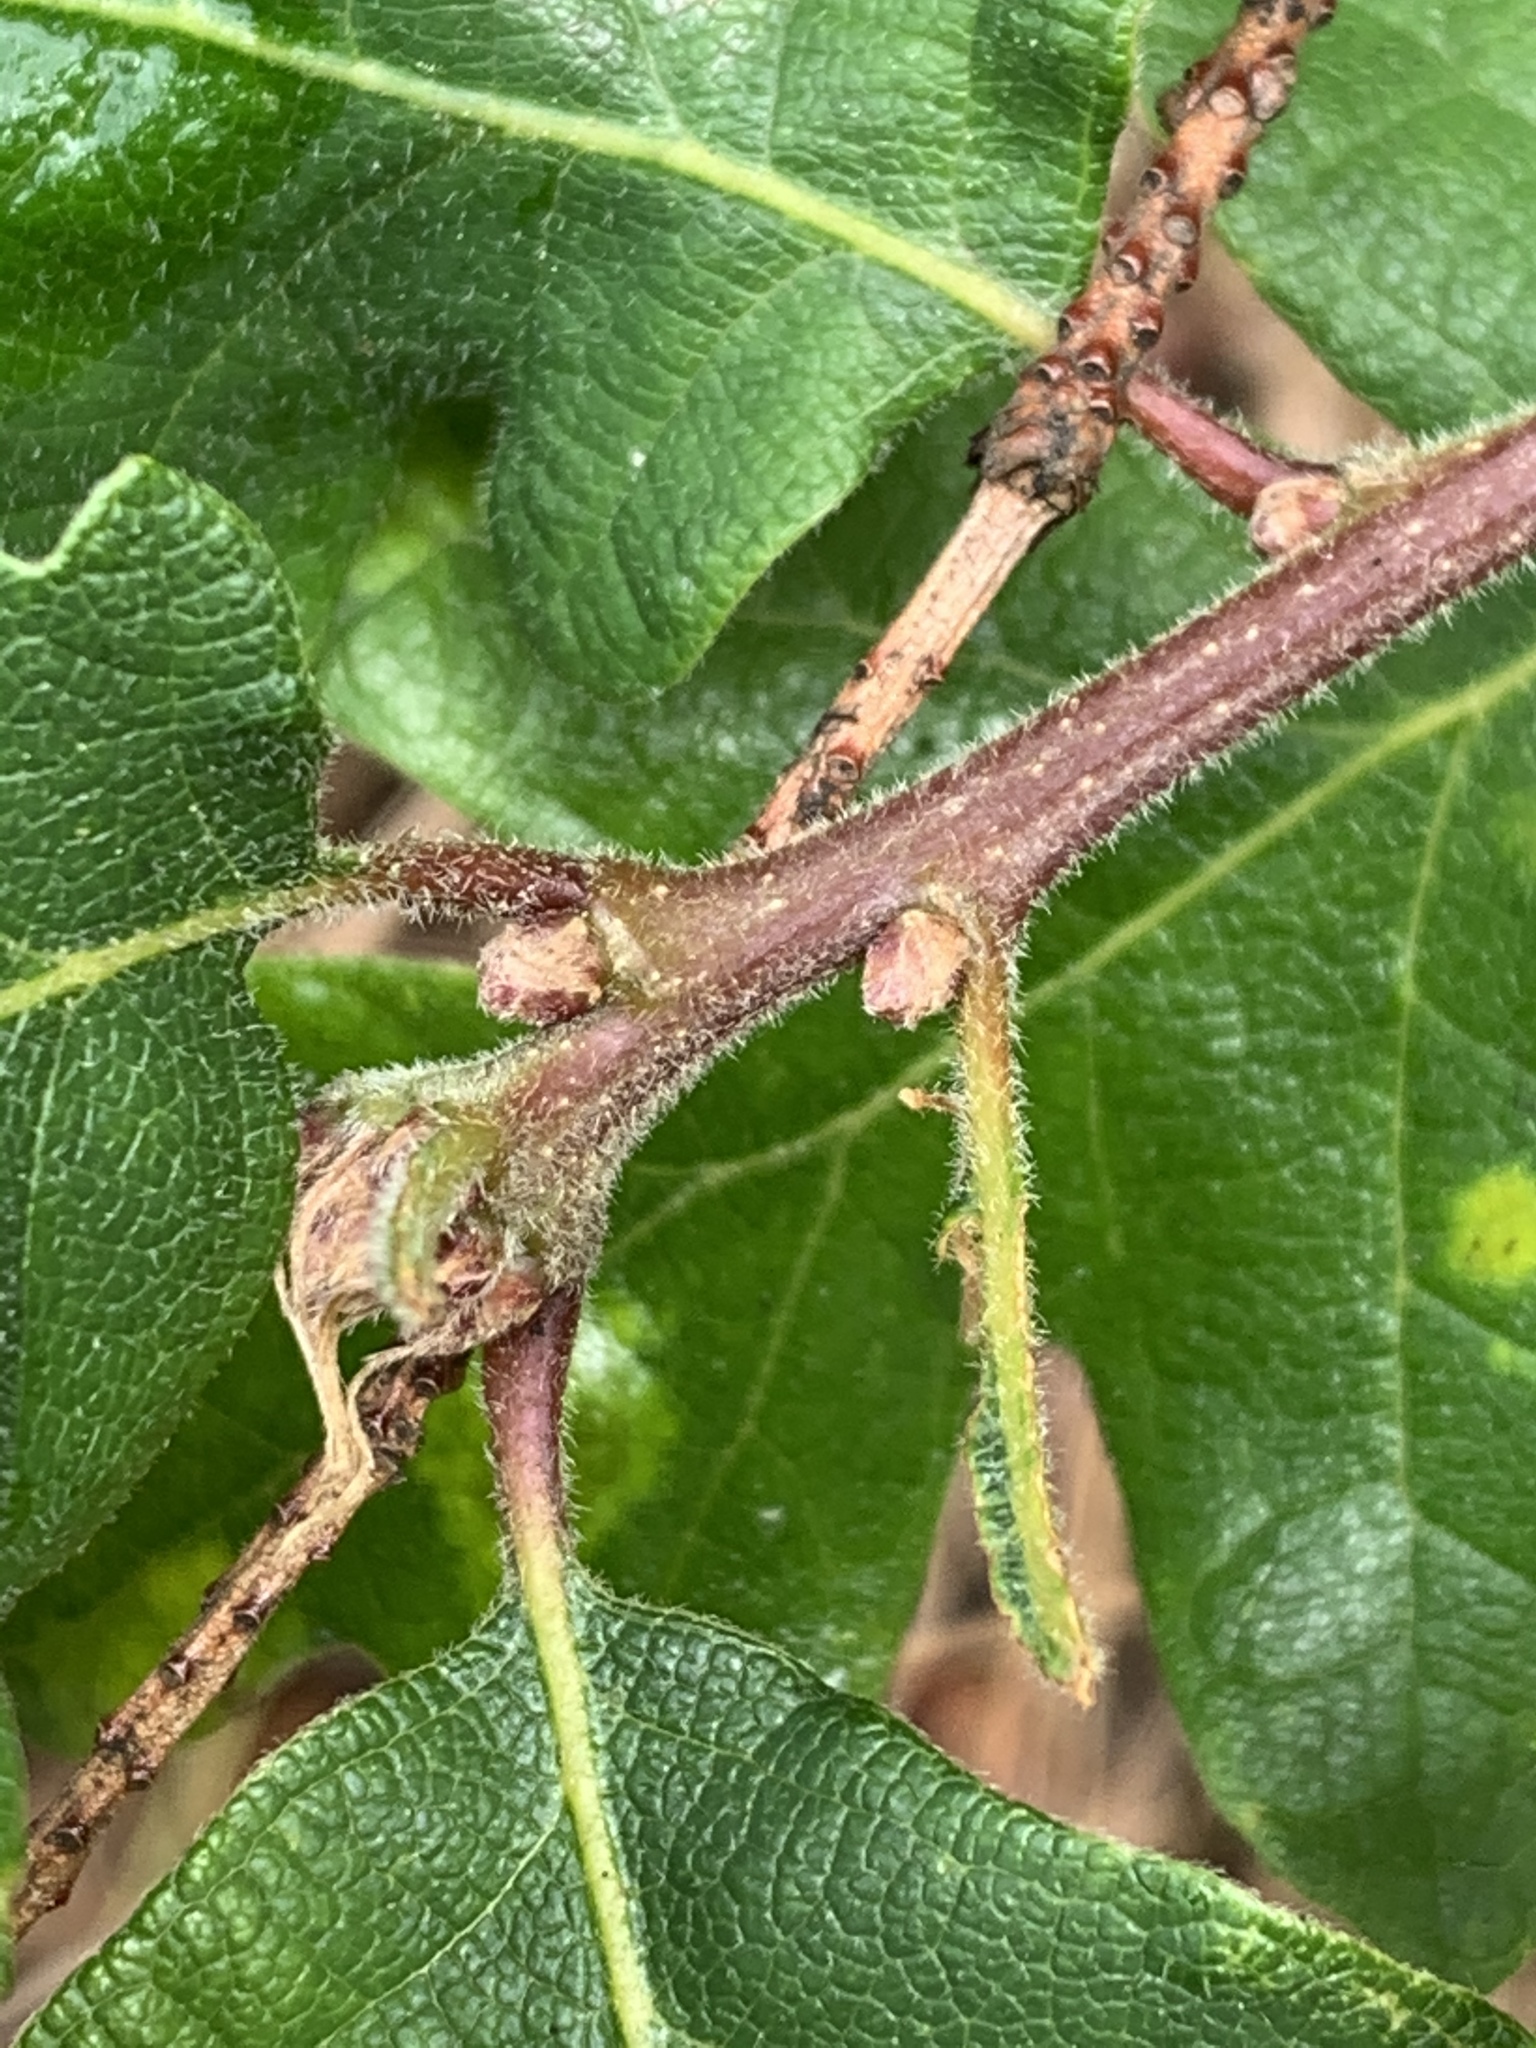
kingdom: Plantae
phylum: Tracheophyta
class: Magnoliopsida
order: Fagales
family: Fagaceae
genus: Quercus
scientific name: Quercus garryana
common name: Garry oak
